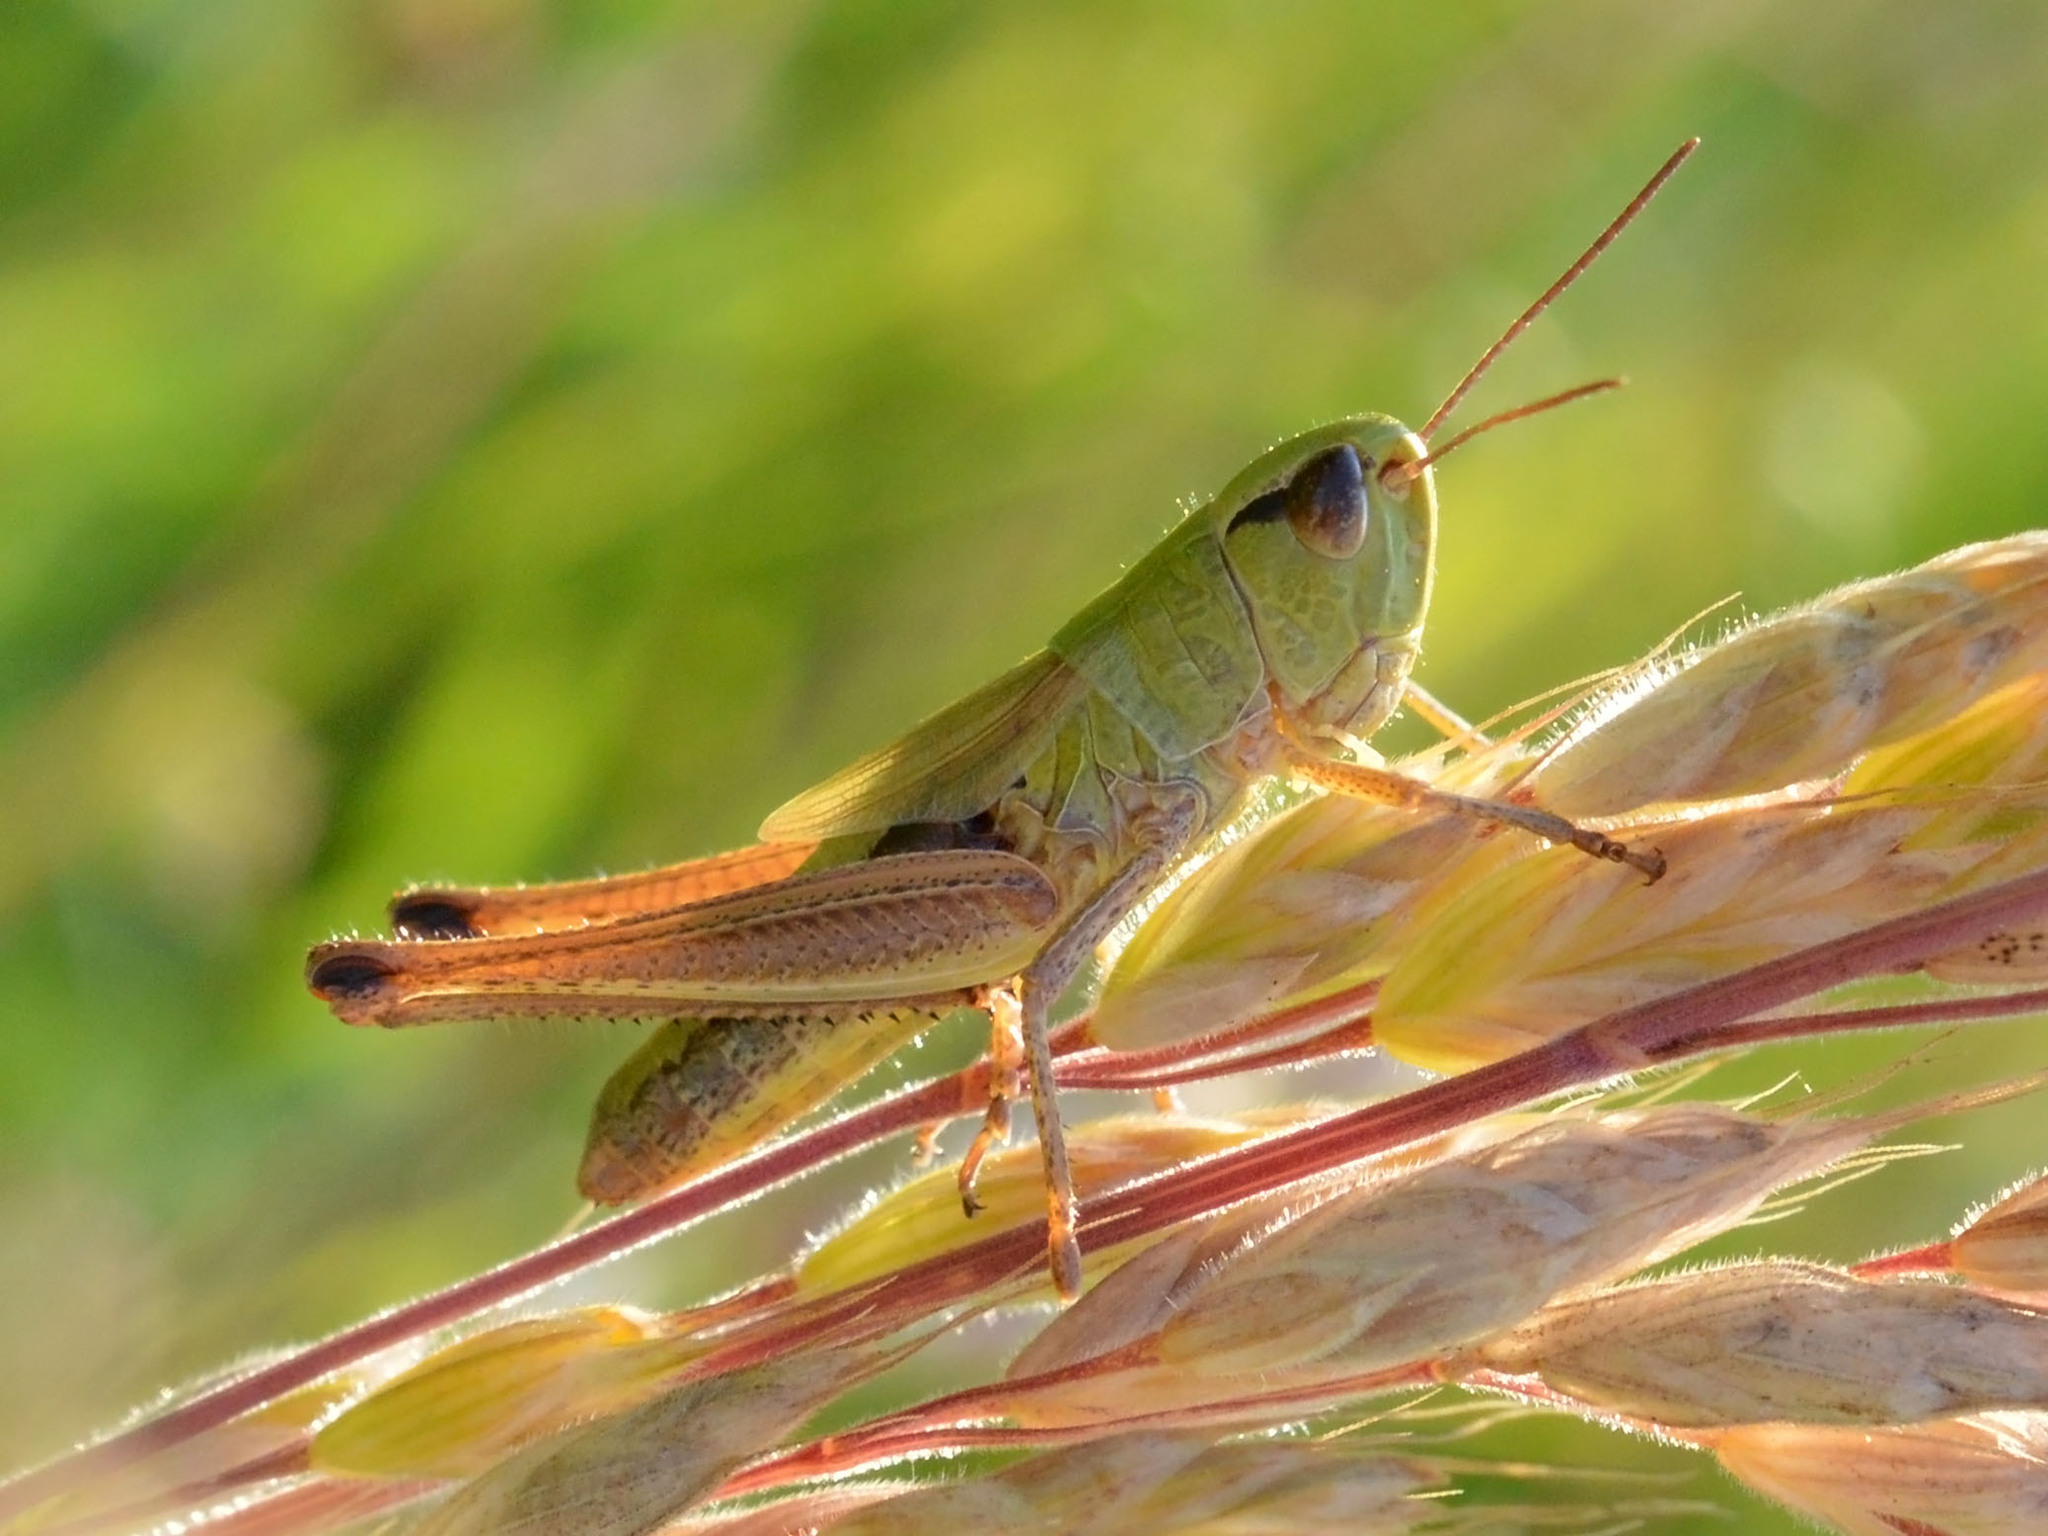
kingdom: Animalia
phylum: Arthropoda
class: Insecta
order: Orthoptera
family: Acrididae
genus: Pseudochorthippus
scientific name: Pseudochorthippus parallelus
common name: Meadow grasshopper
